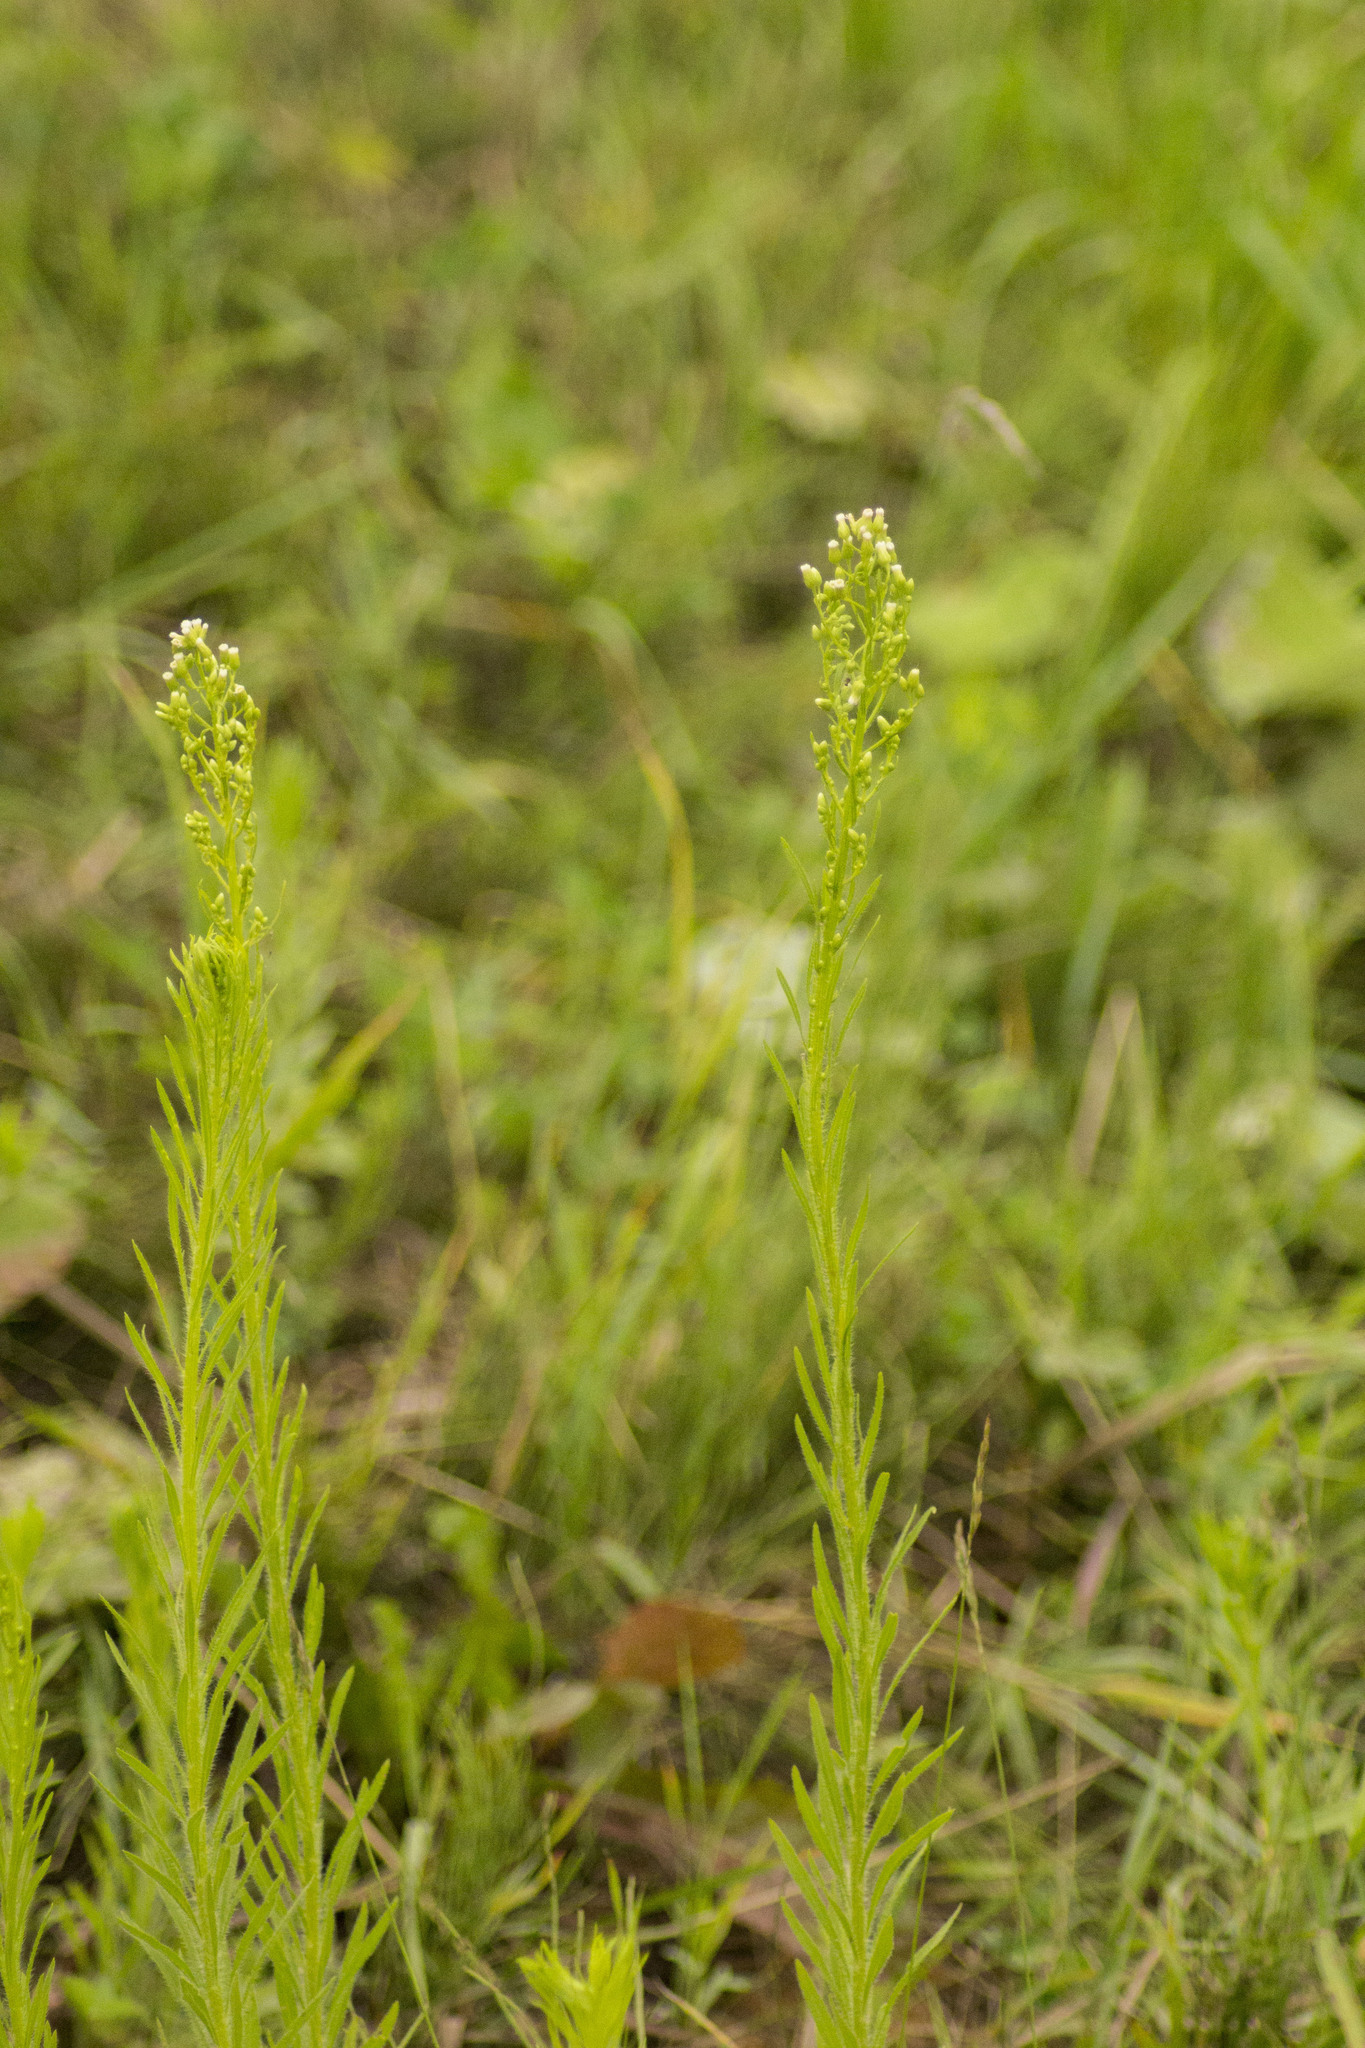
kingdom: Plantae
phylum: Tracheophyta
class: Magnoliopsida
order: Asterales
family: Asteraceae
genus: Erigeron
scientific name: Erigeron canadensis
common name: Canadian fleabane
